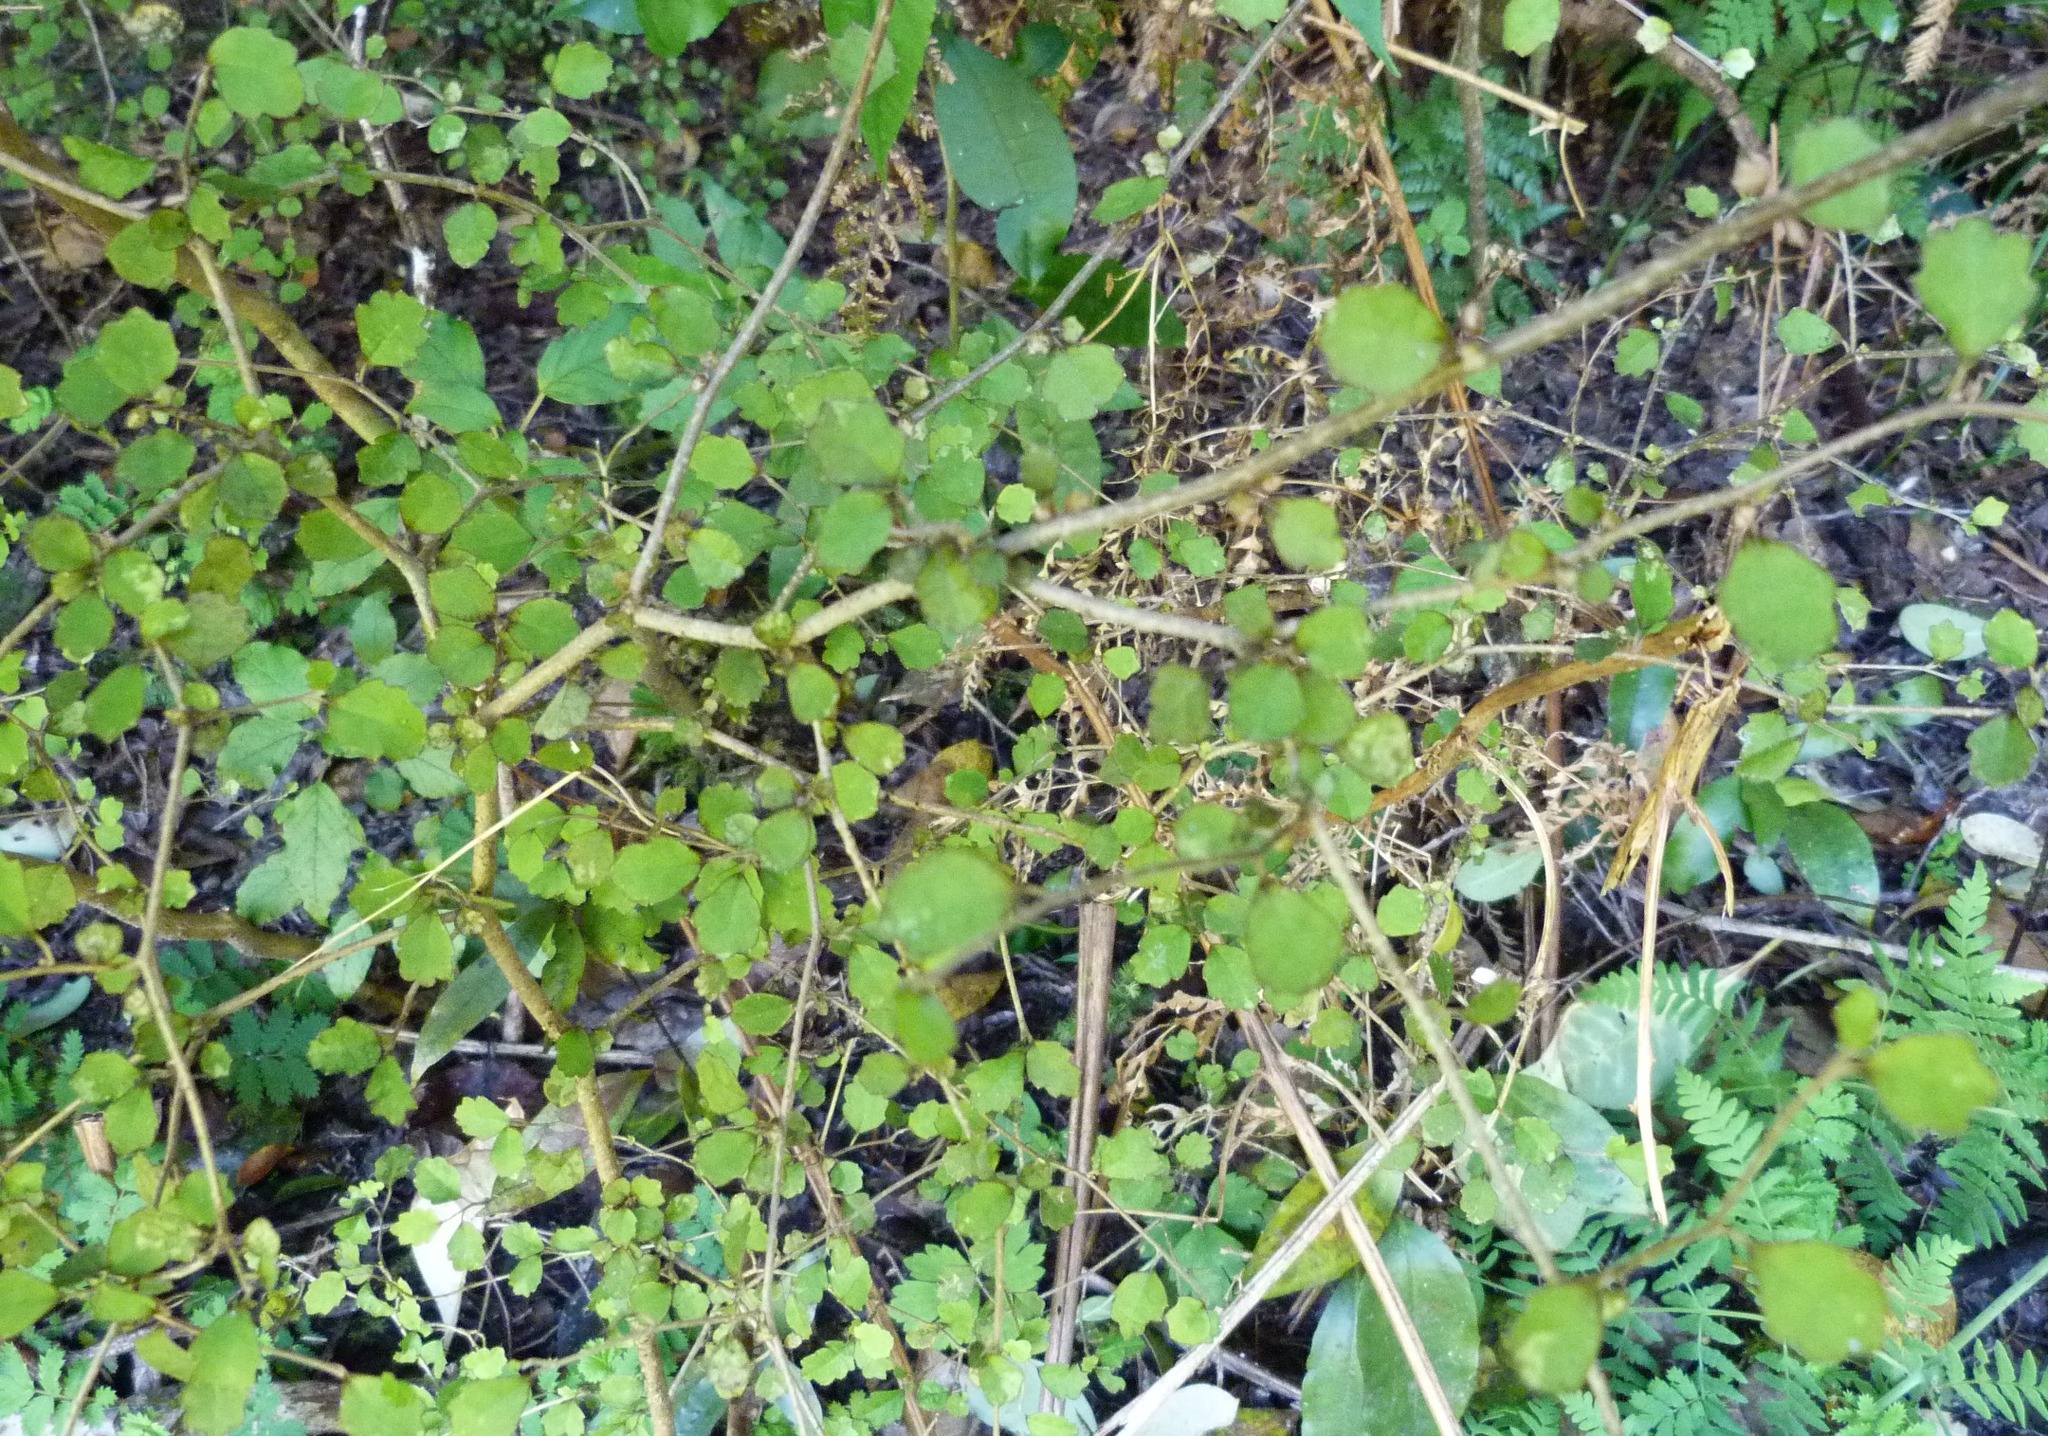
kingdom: Plantae
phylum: Tracheophyta
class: Magnoliopsida
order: Apiales
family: Pennantiaceae
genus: Pennantia
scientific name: Pennantia corymbosa
